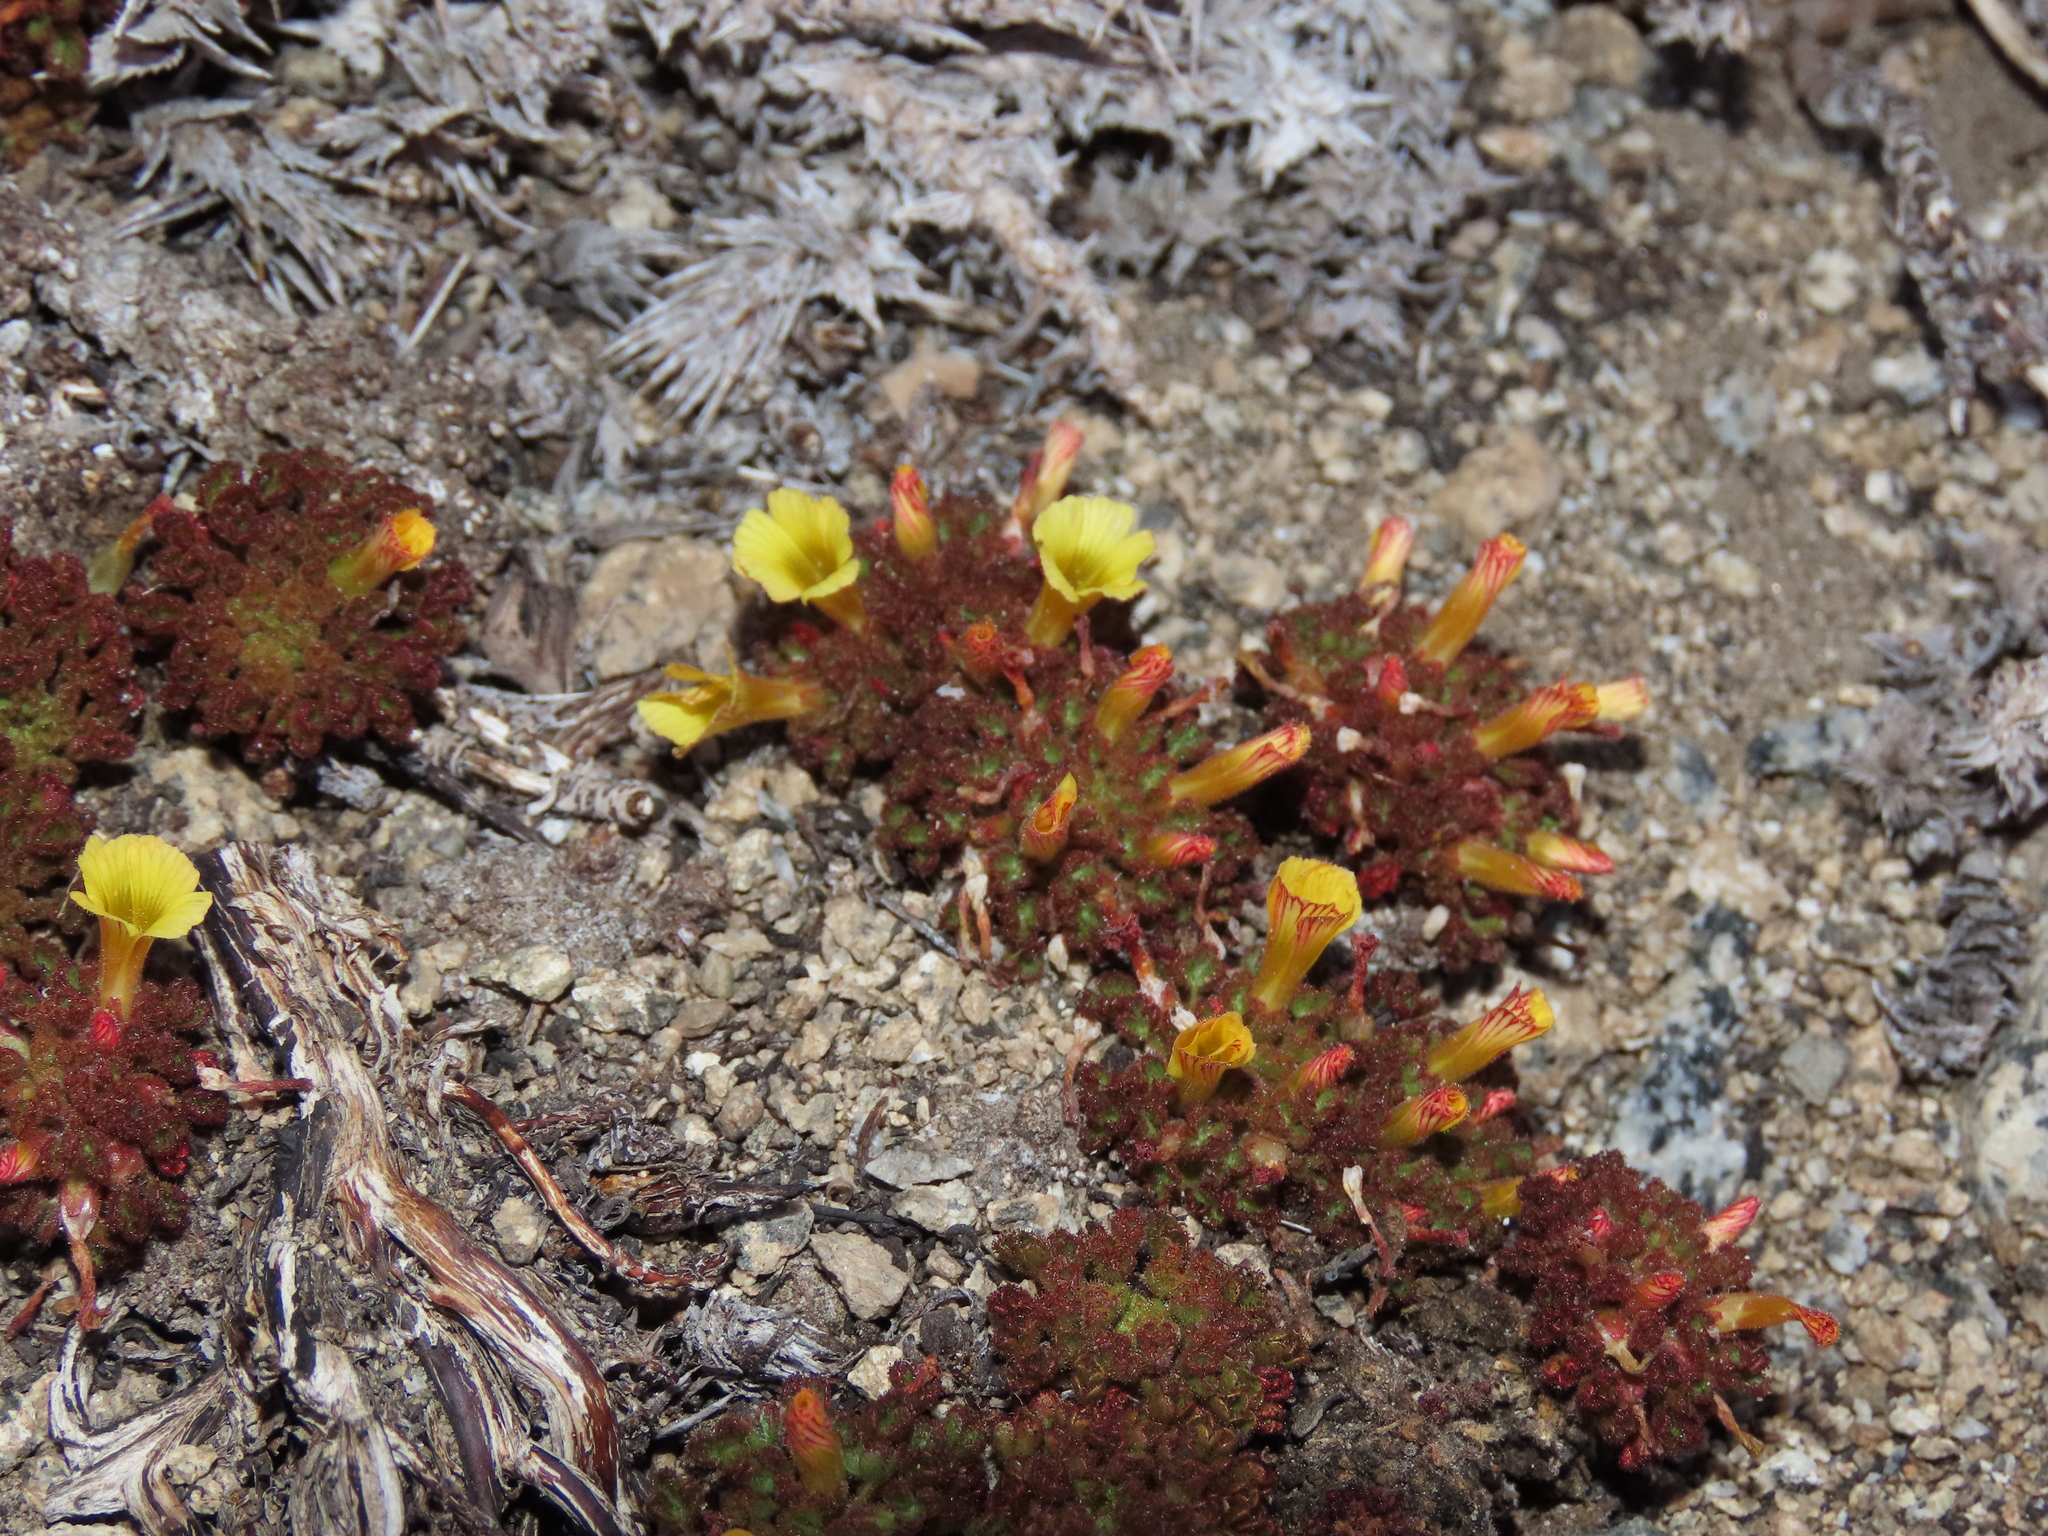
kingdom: Plantae
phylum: Tracheophyta
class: Magnoliopsida
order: Oxalidales
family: Oxalidaceae
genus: Oxalis
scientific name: Oxalis hypsophila
